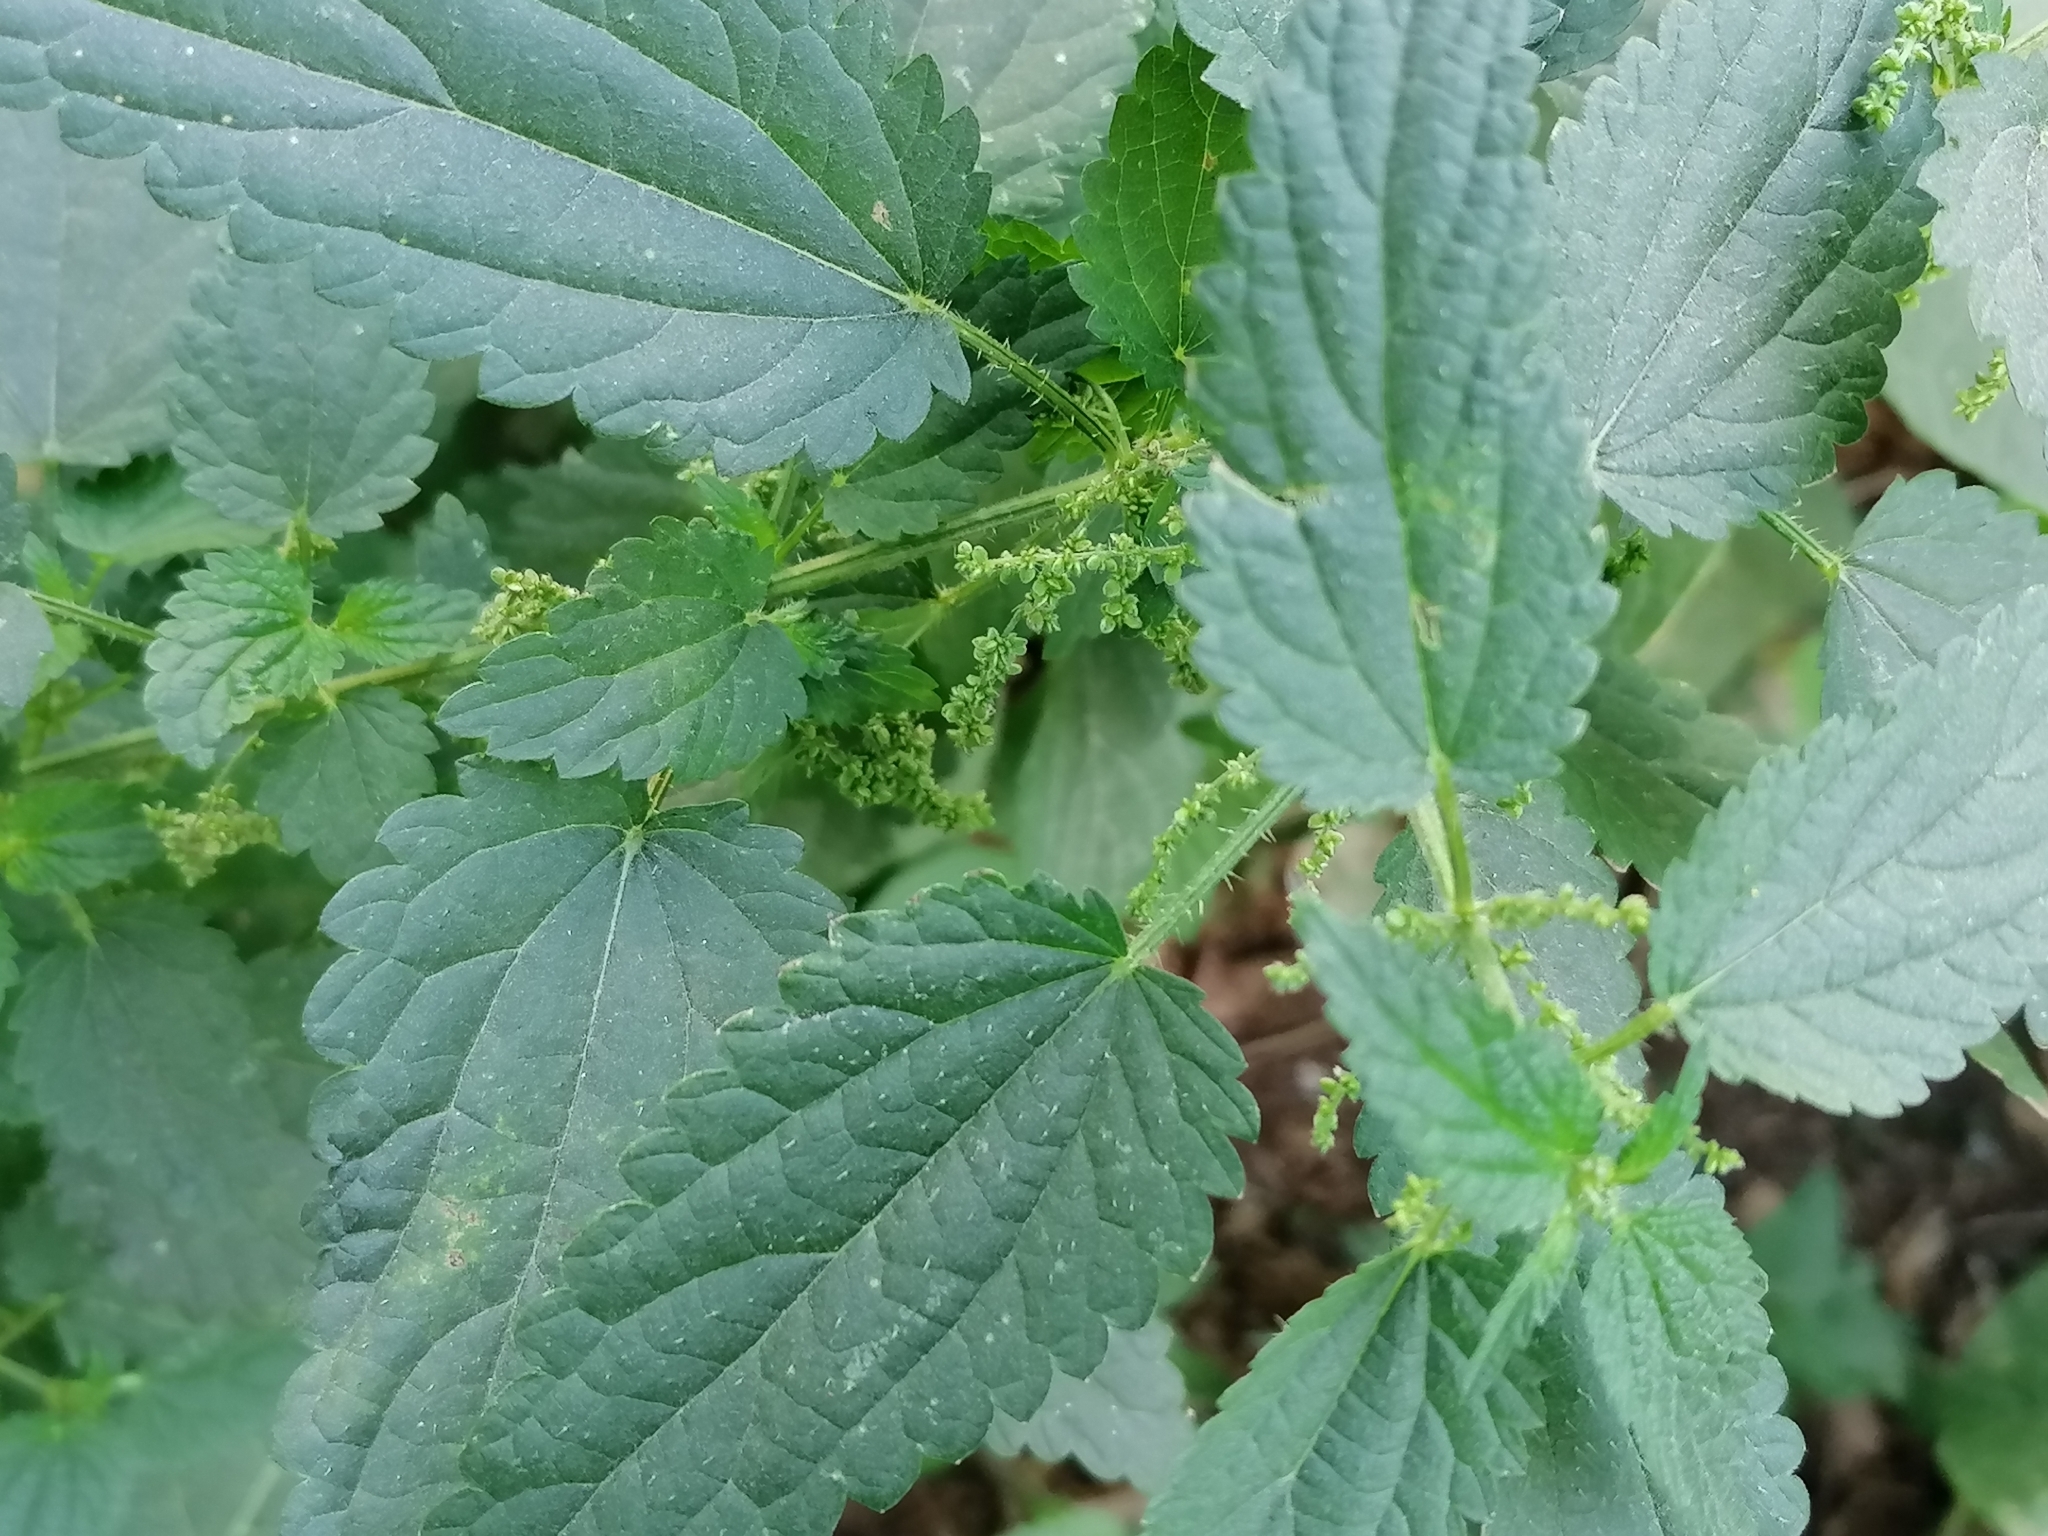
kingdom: Plantae
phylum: Tracheophyta
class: Magnoliopsida
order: Rosales
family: Urticaceae
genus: Urtica
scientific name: Urtica dioica
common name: Common nettle
